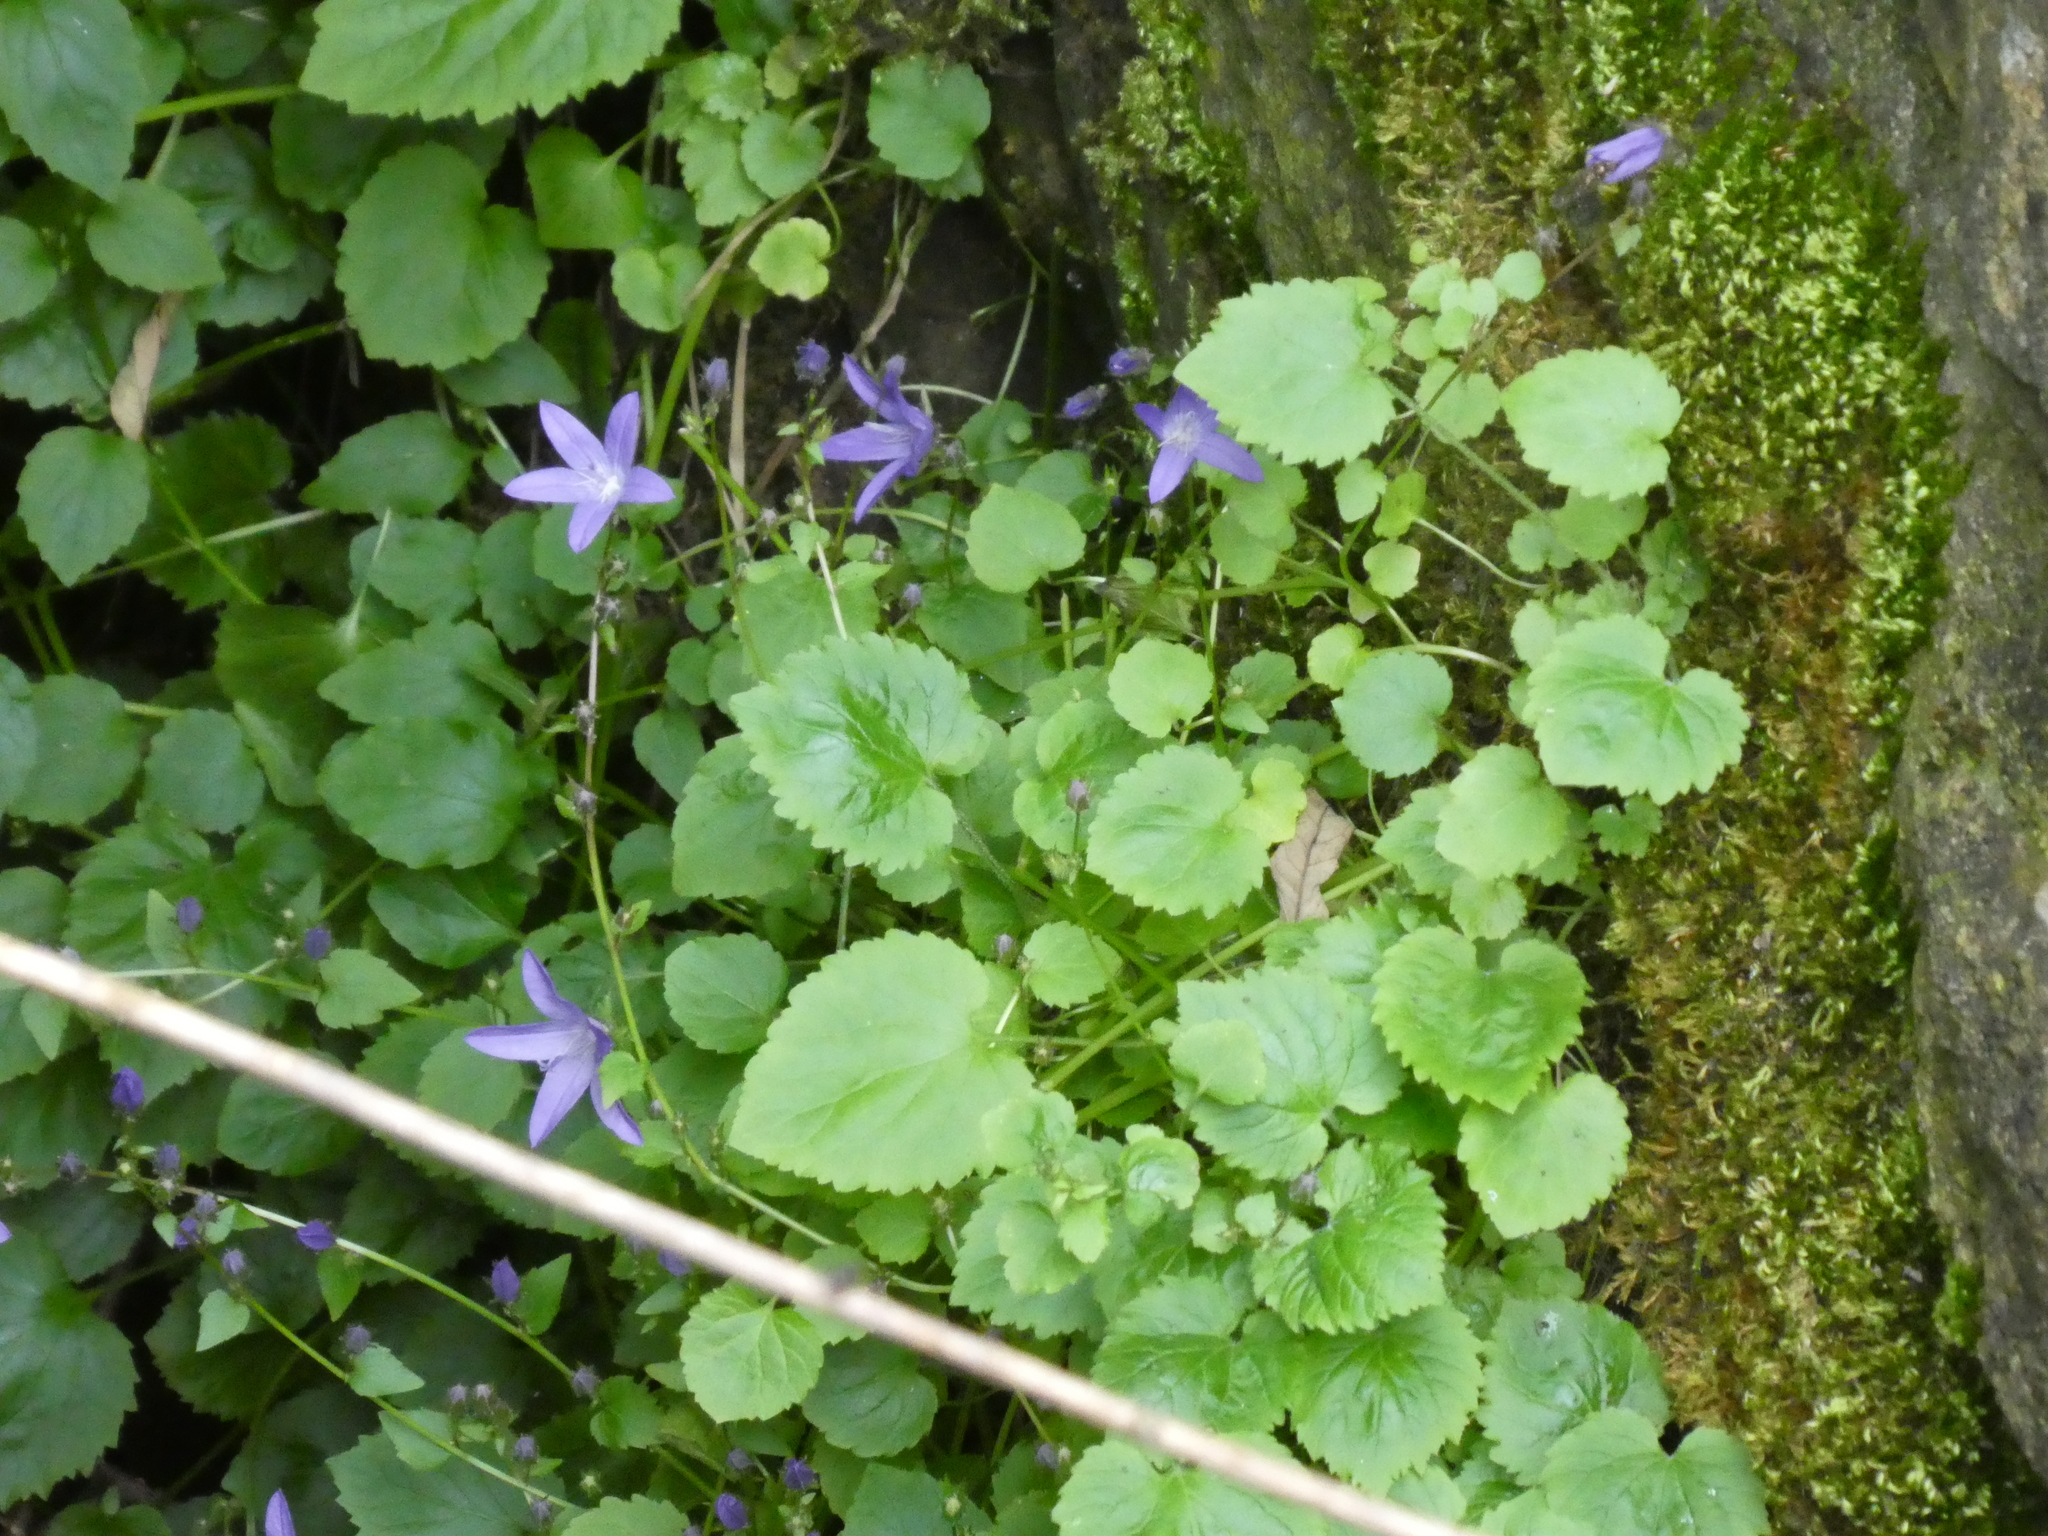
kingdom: Plantae
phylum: Tracheophyta
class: Magnoliopsida
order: Asterales
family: Campanulaceae
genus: Campanula
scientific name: Campanula poscharskyana
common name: Trailing bellflower
